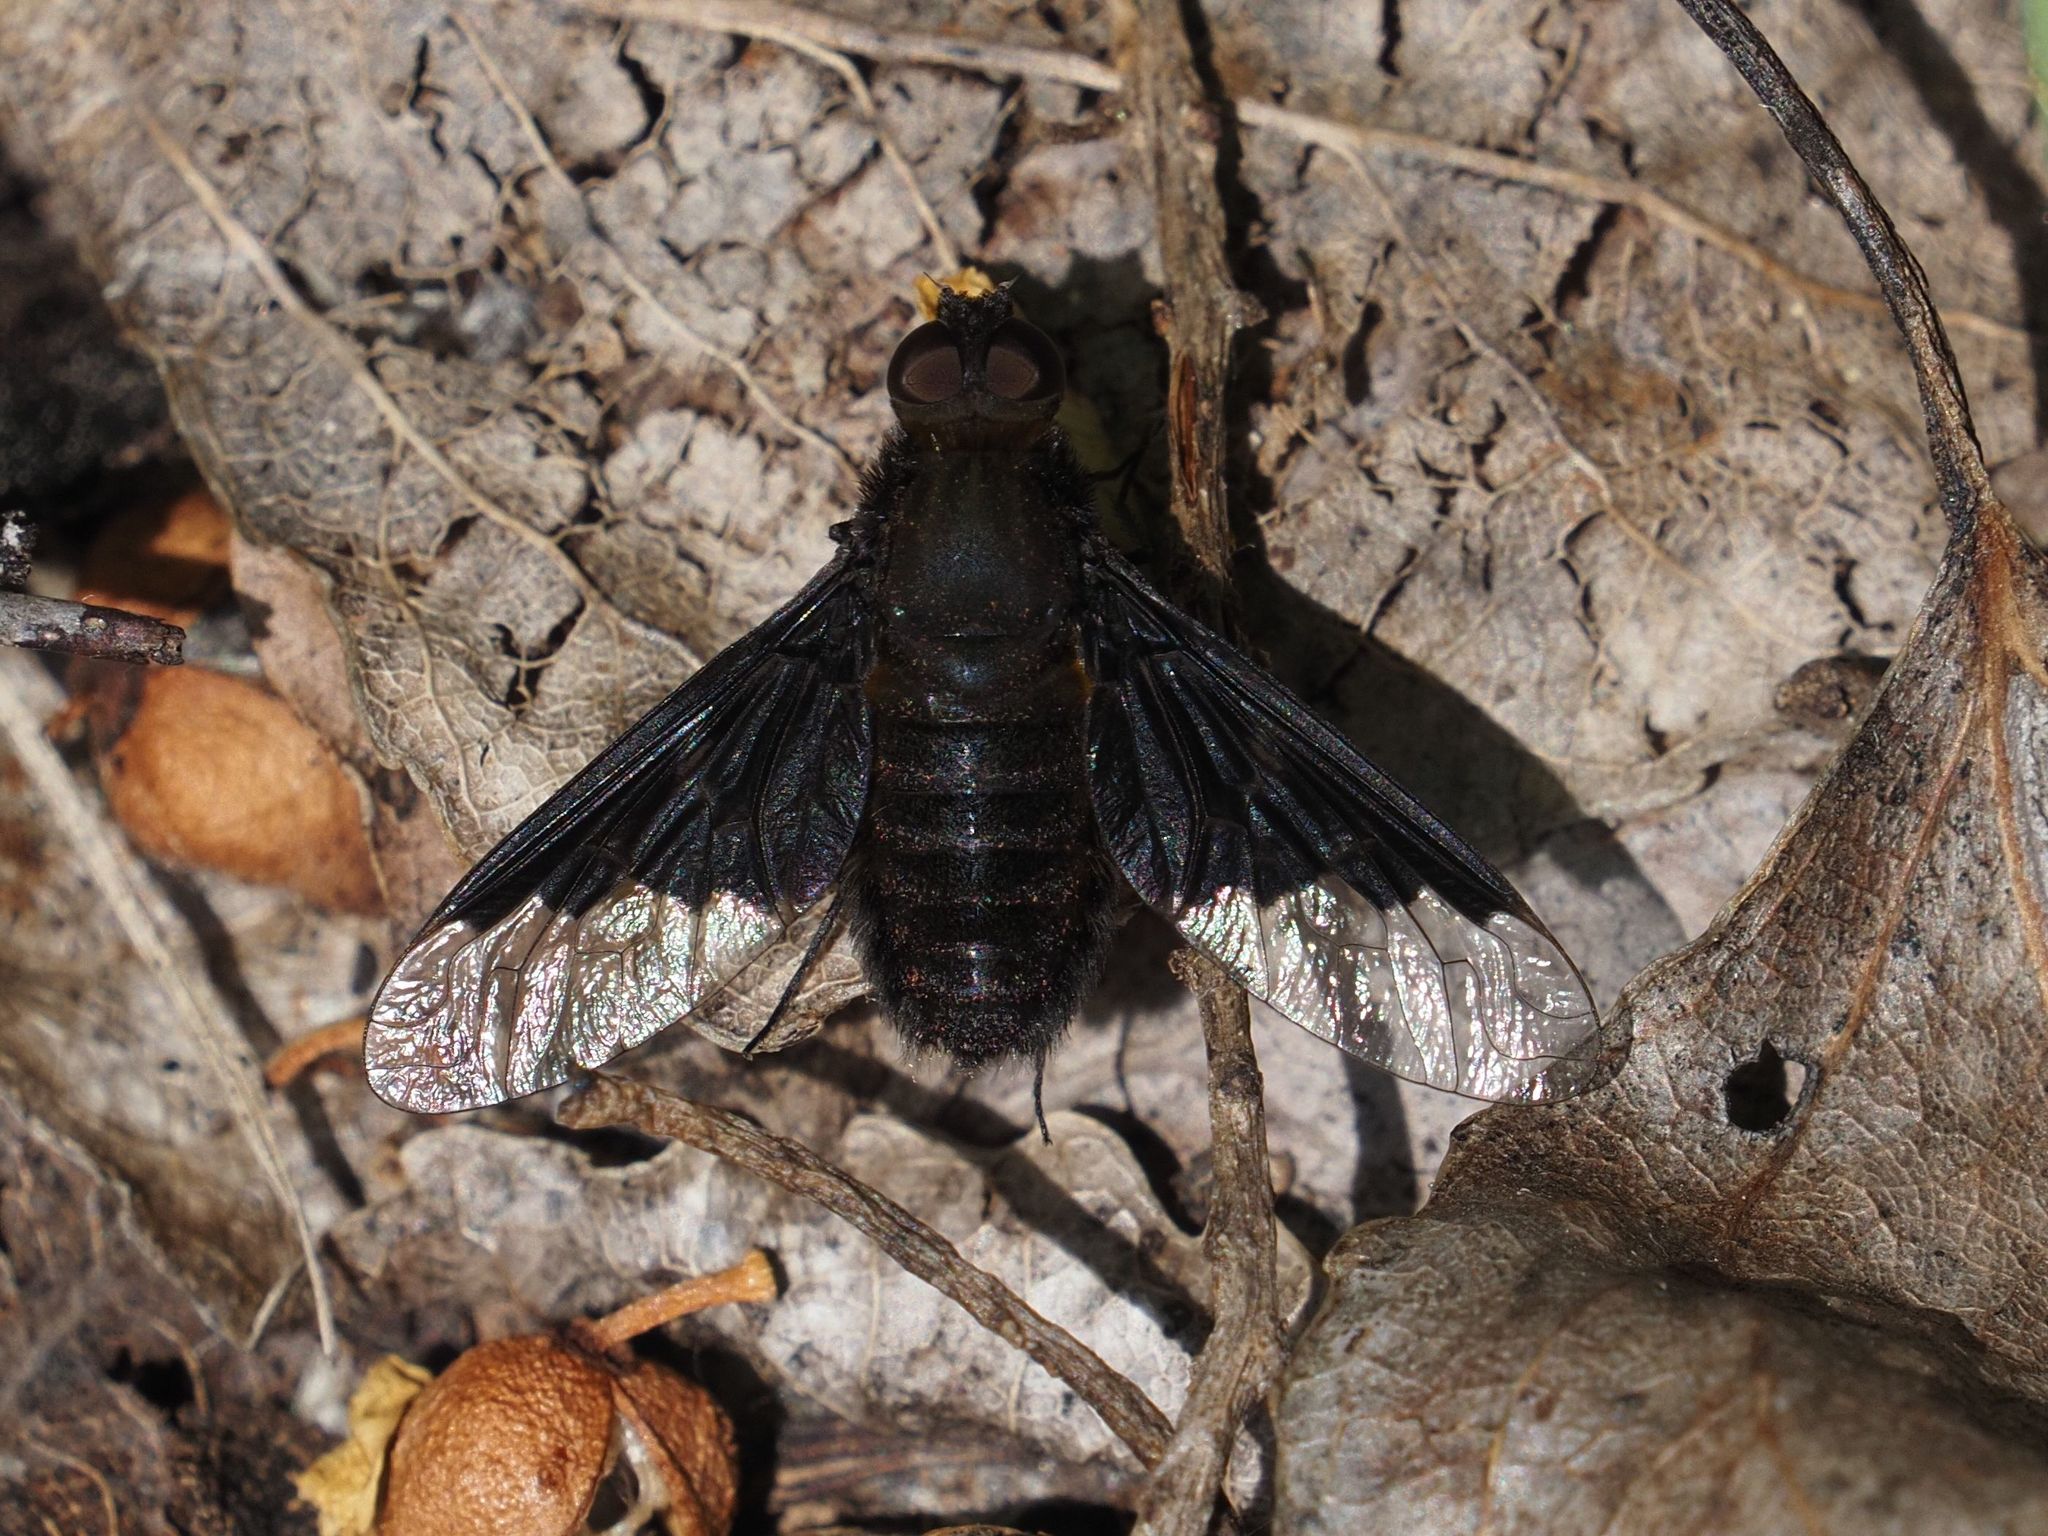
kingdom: Animalia
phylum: Arthropoda
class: Insecta
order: Diptera
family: Bombyliidae
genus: Hemipenthes
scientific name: Hemipenthes morio
